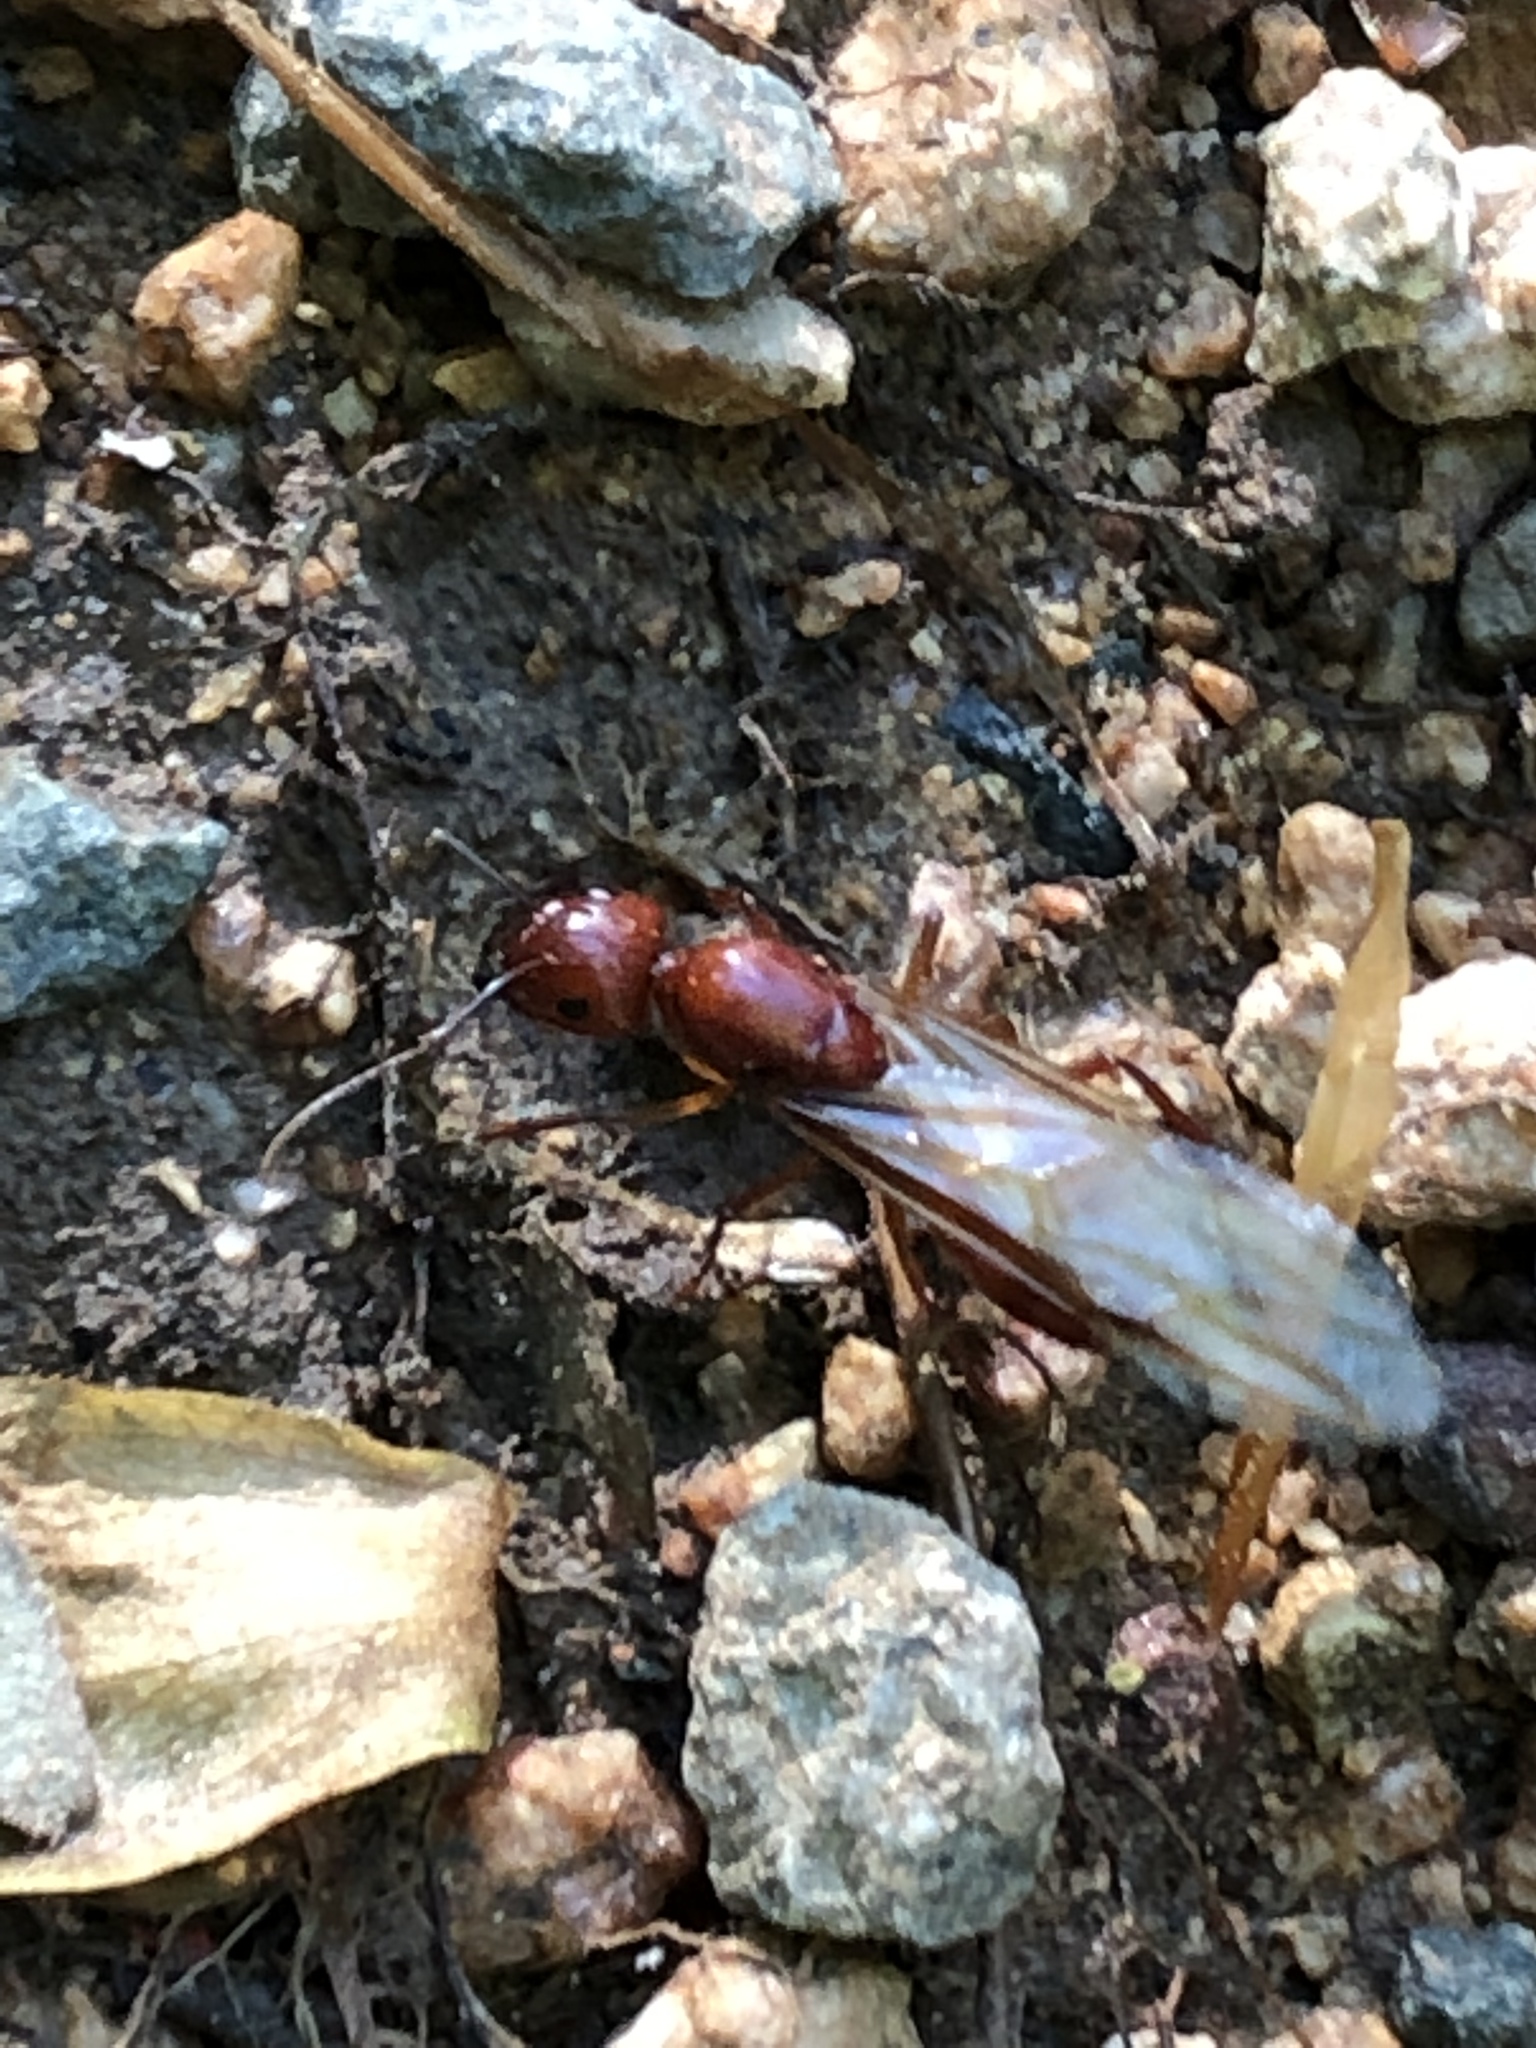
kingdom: Animalia
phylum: Arthropoda
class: Insecta
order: Hymenoptera
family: Formicidae
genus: Camponotus
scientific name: Camponotus castaneus
